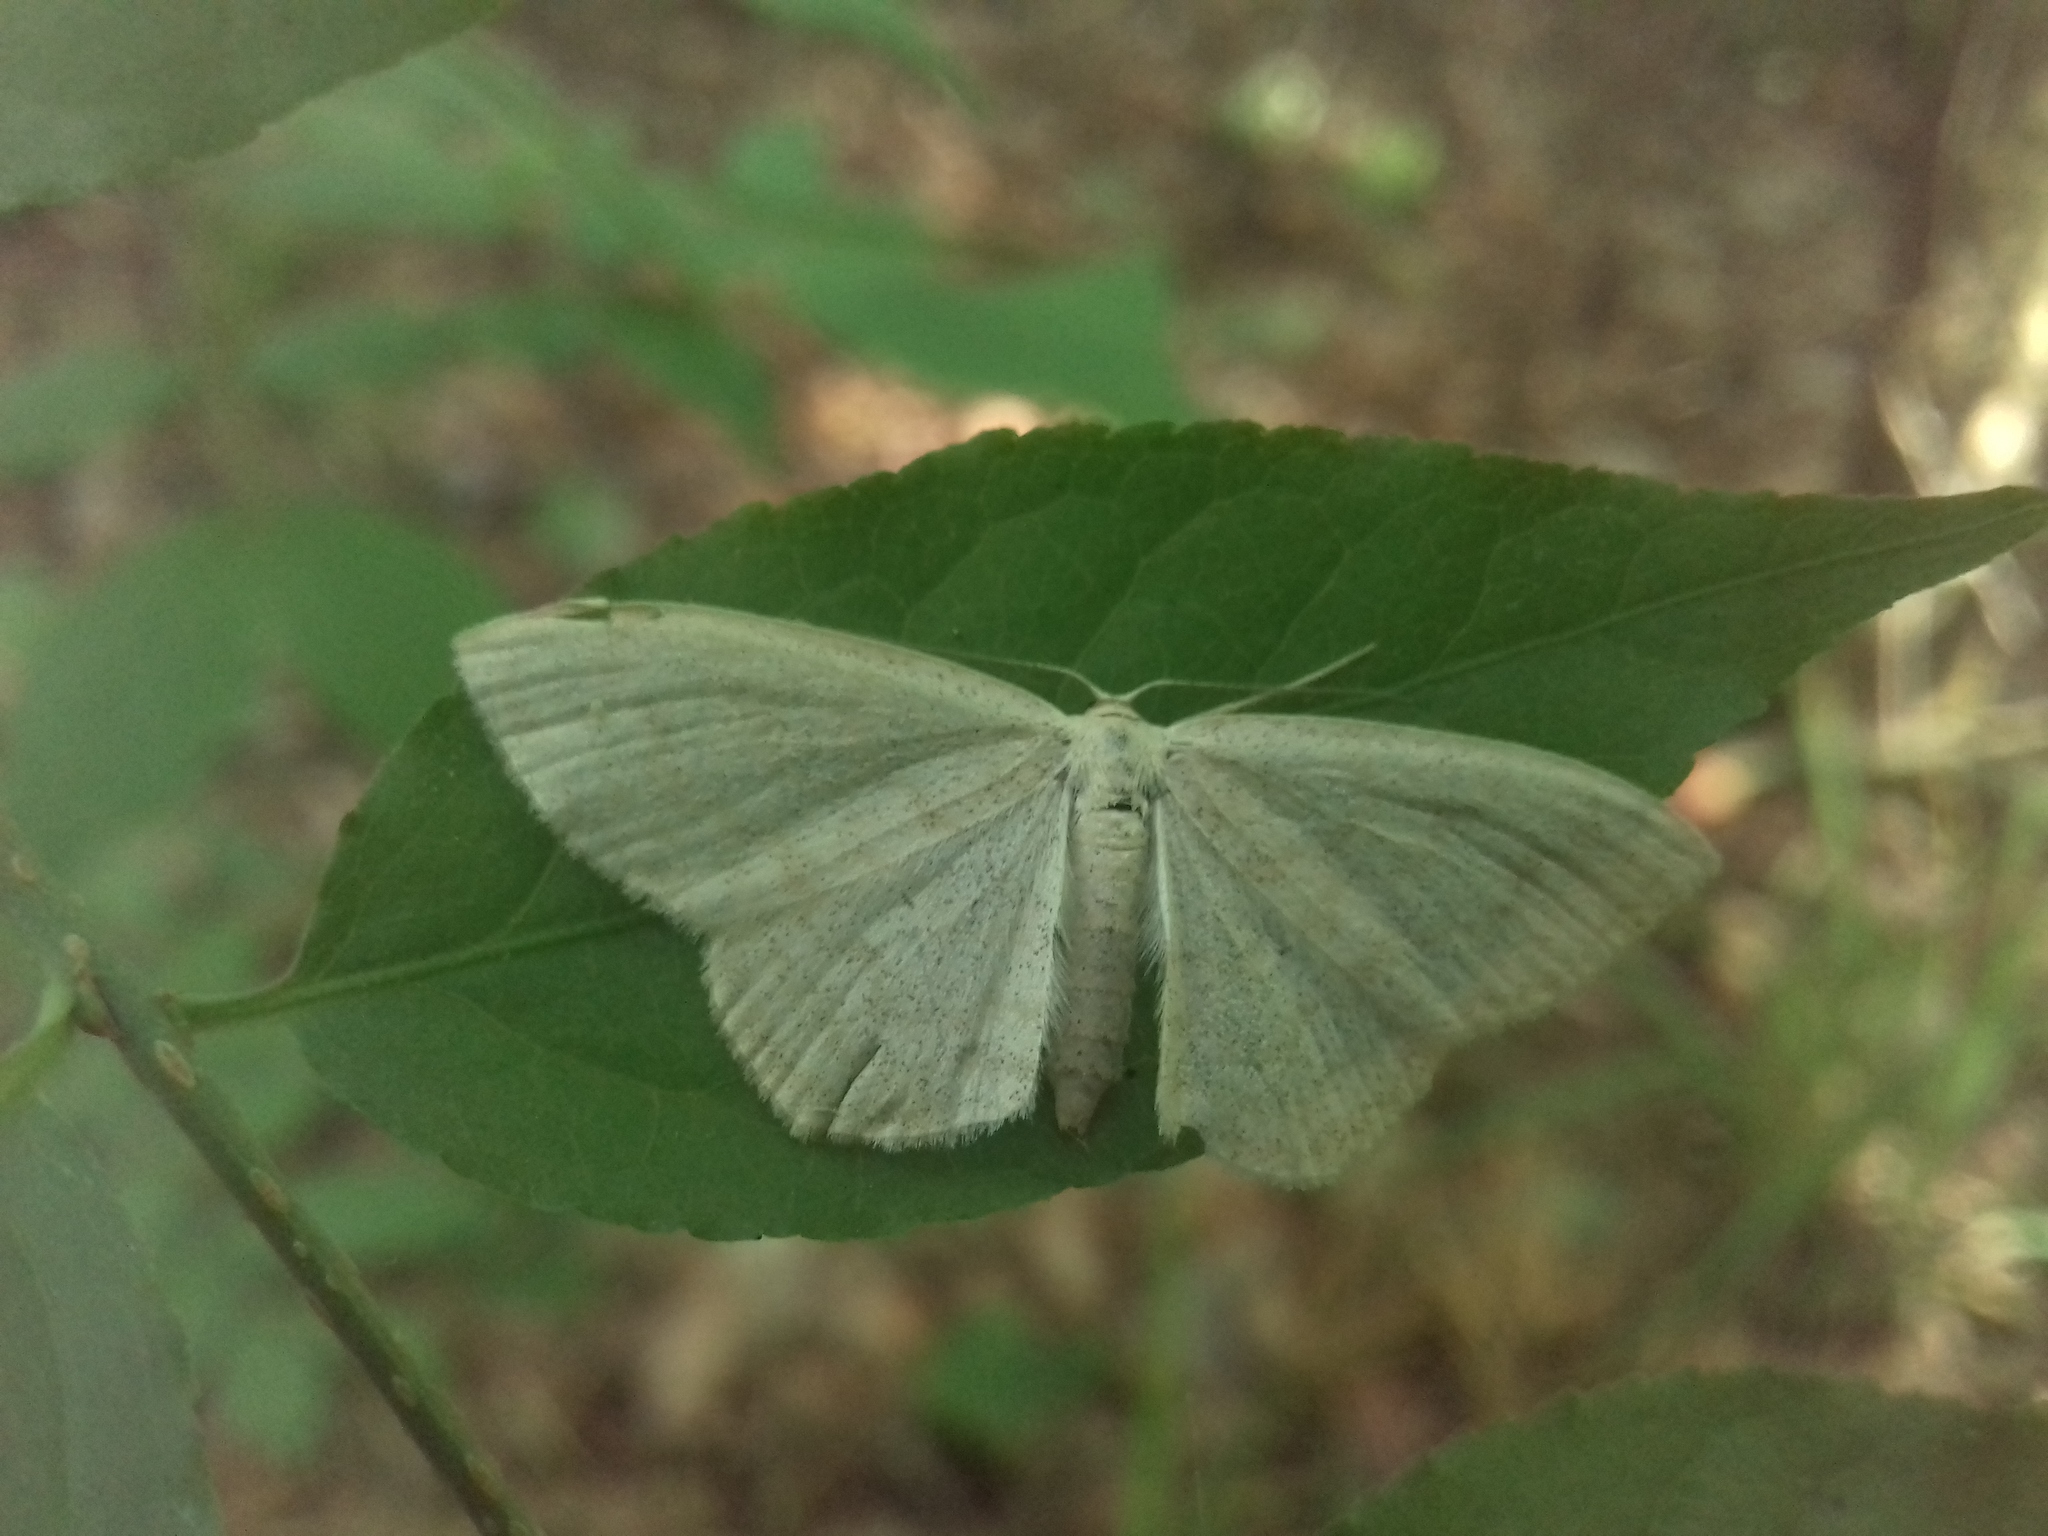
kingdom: Animalia
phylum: Arthropoda
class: Insecta
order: Lepidoptera
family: Geometridae
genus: Scopula
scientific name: Scopula floslactata
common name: Cream wave
